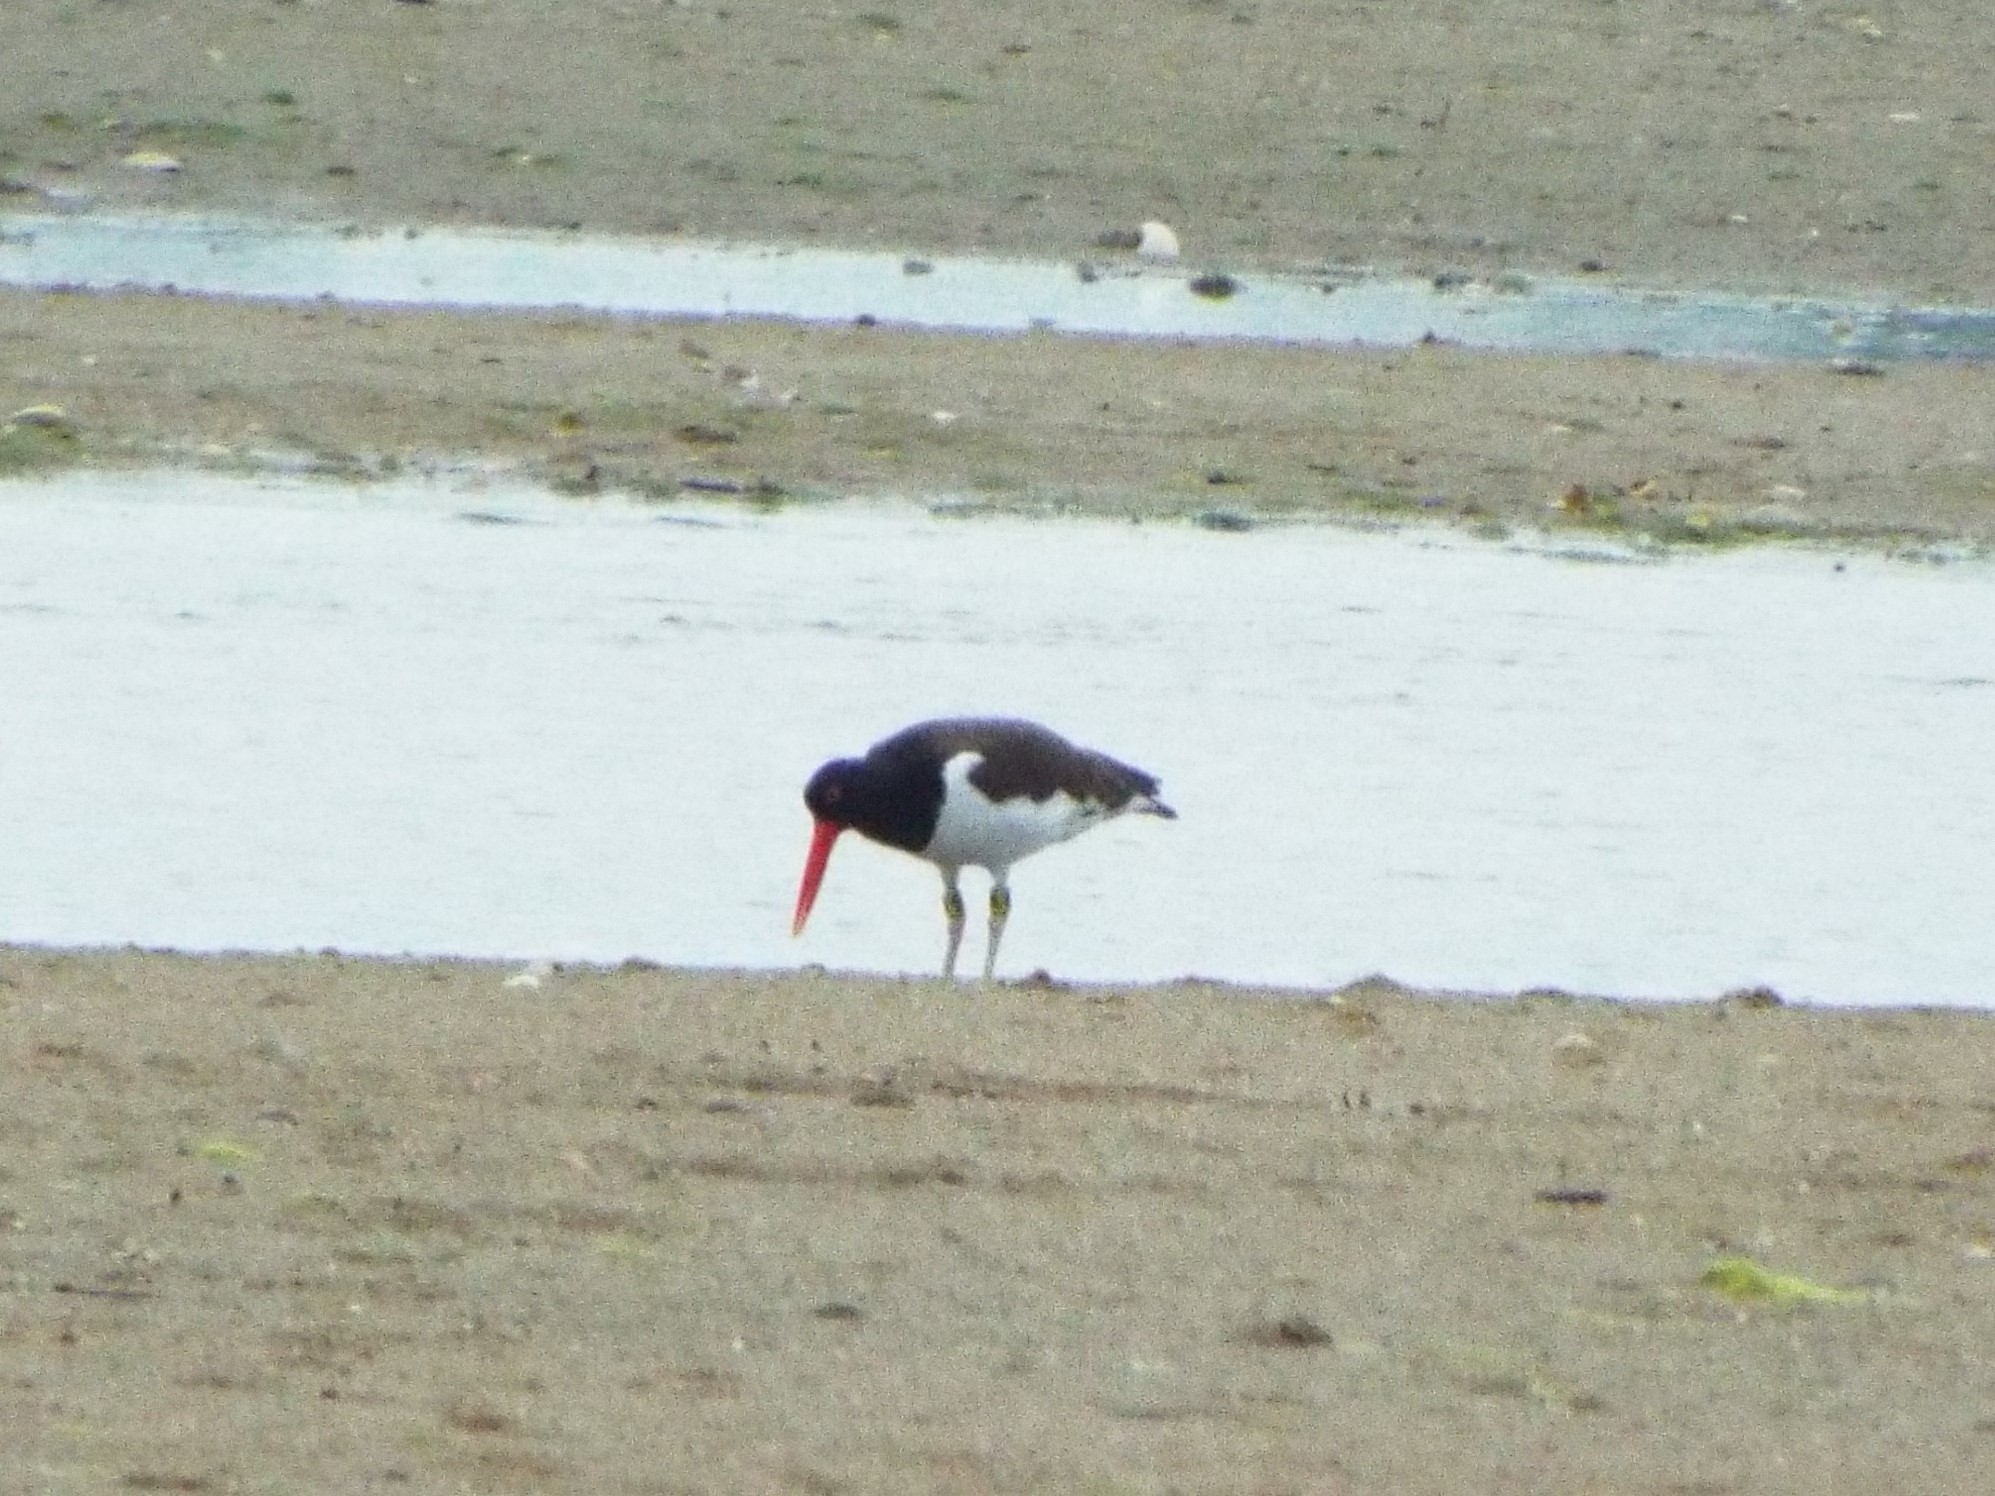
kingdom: Animalia
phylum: Chordata
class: Aves
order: Charadriiformes
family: Haematopodidae
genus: Haematopus
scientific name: Haematopus palliatus
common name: American oystercatcher
